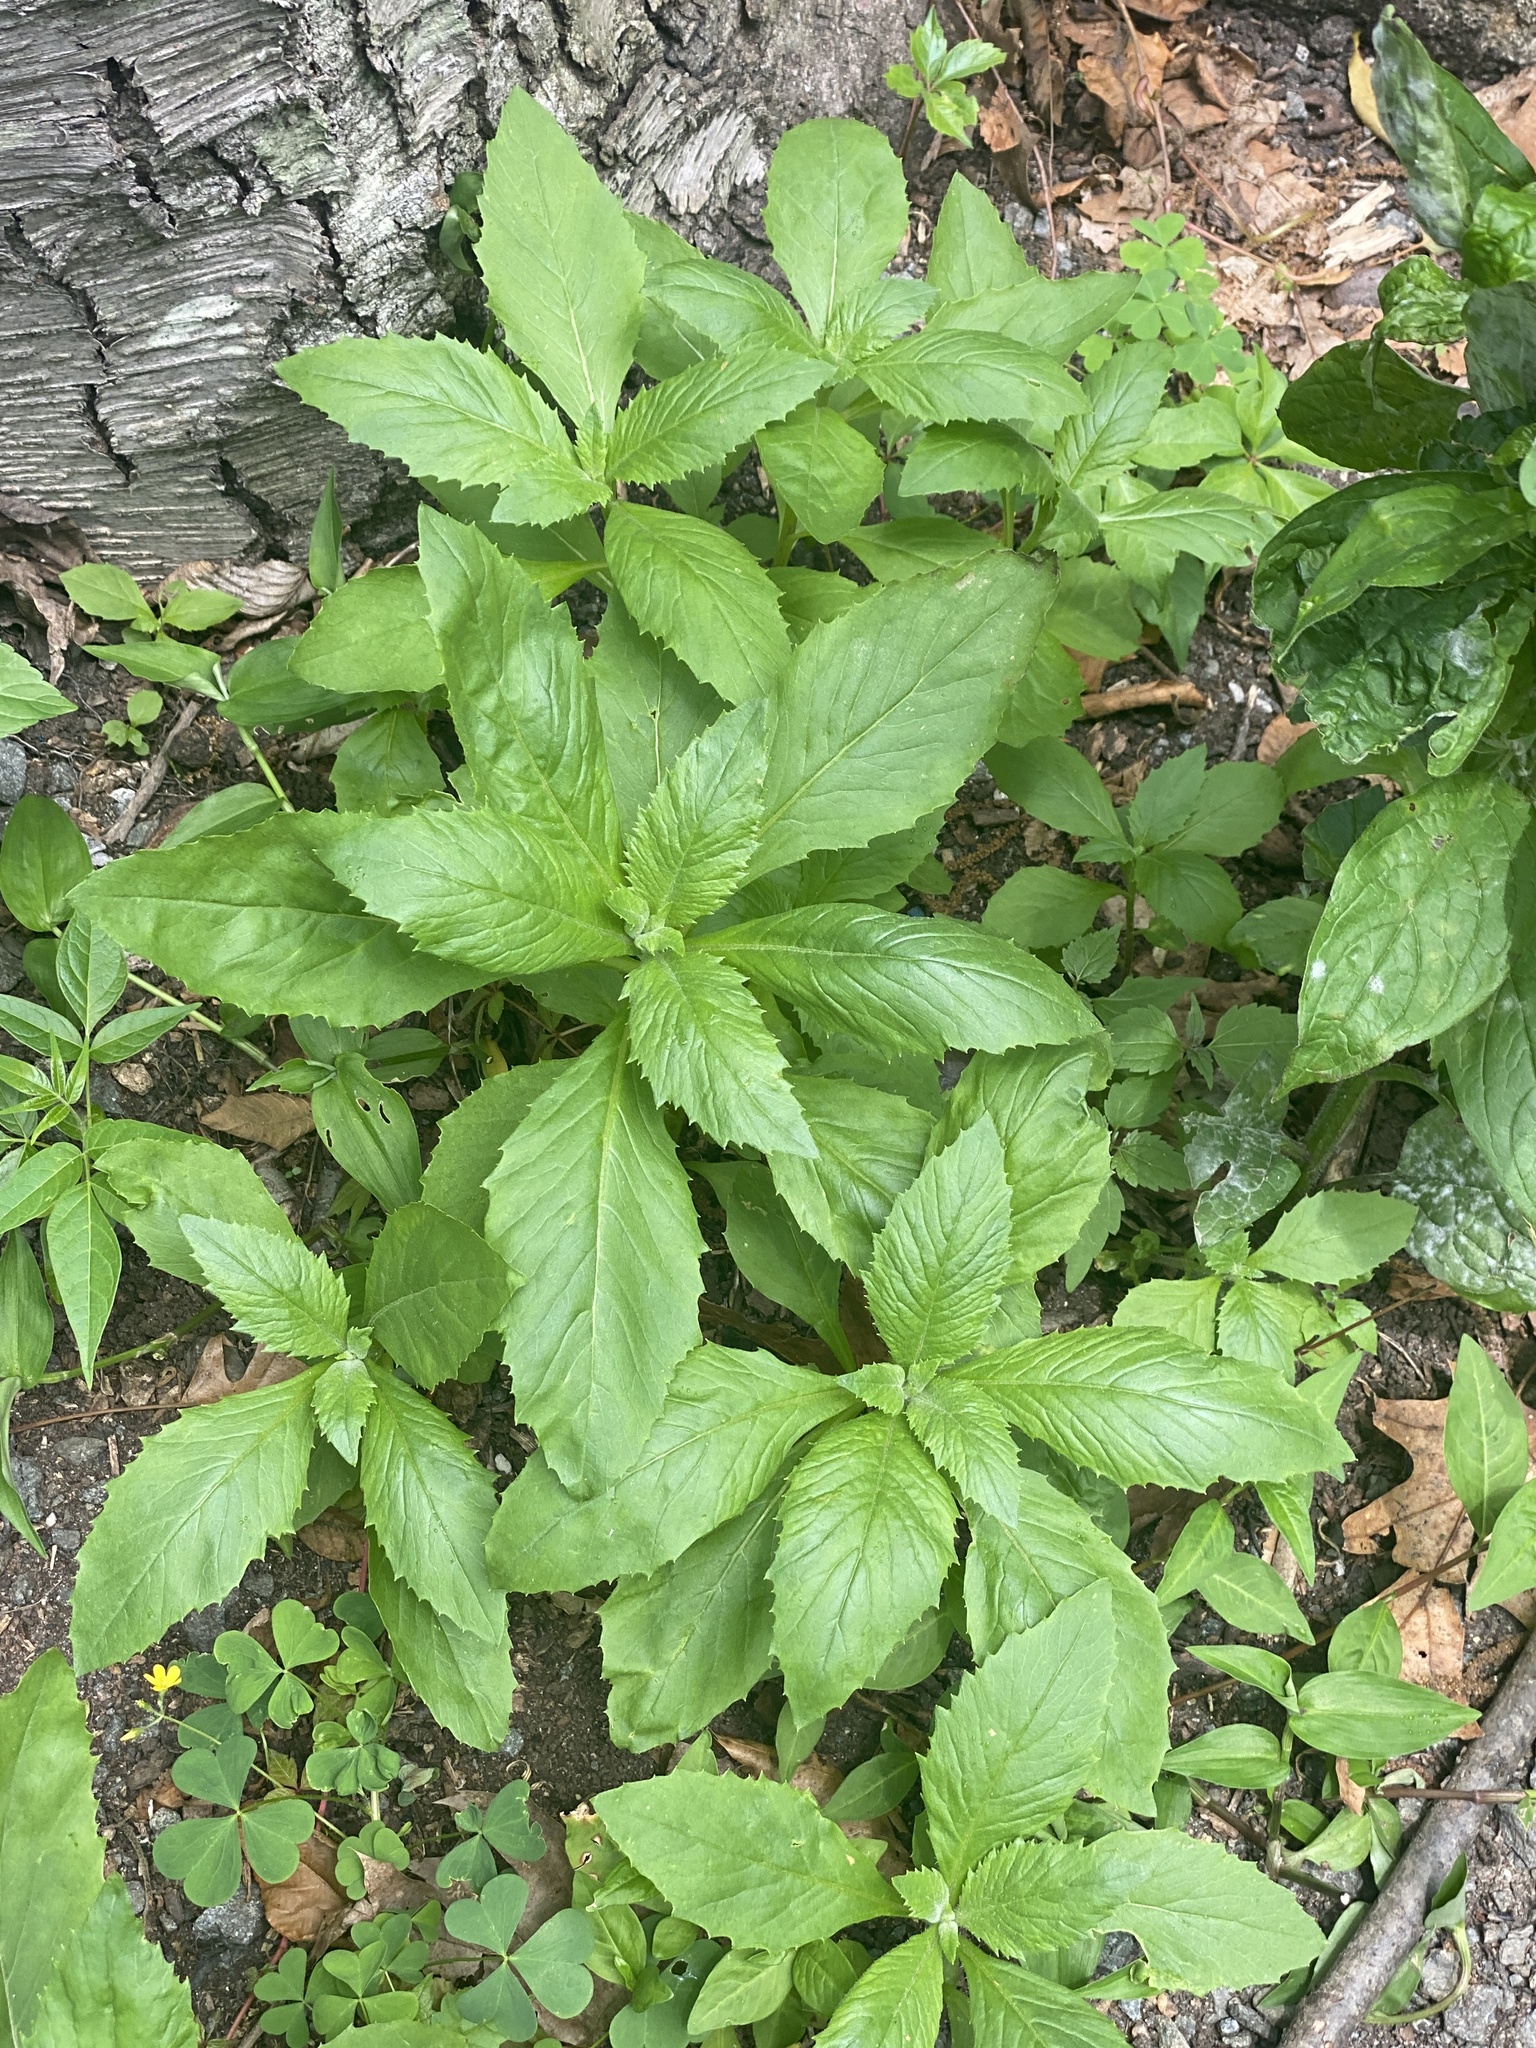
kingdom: Plantae
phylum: Tracheophyta
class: Magnoliopsida
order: Asterales
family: Asteraceae
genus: Erechtites
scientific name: Erechtites hieraciifolius
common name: American burnweed
